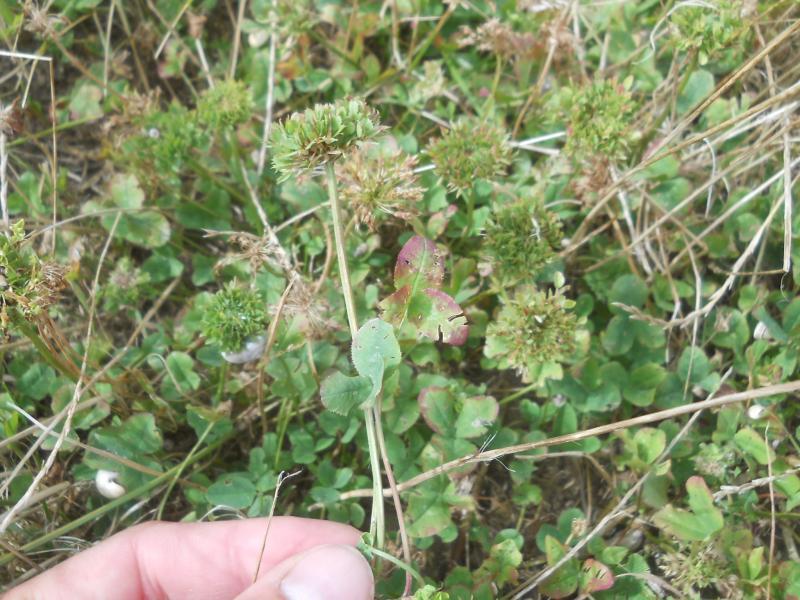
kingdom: Plantae
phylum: Tracheophyta
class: Magnoliopsida
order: Fabales
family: Fabaceae
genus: Trifolium
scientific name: Trifolium repens
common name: White clover
